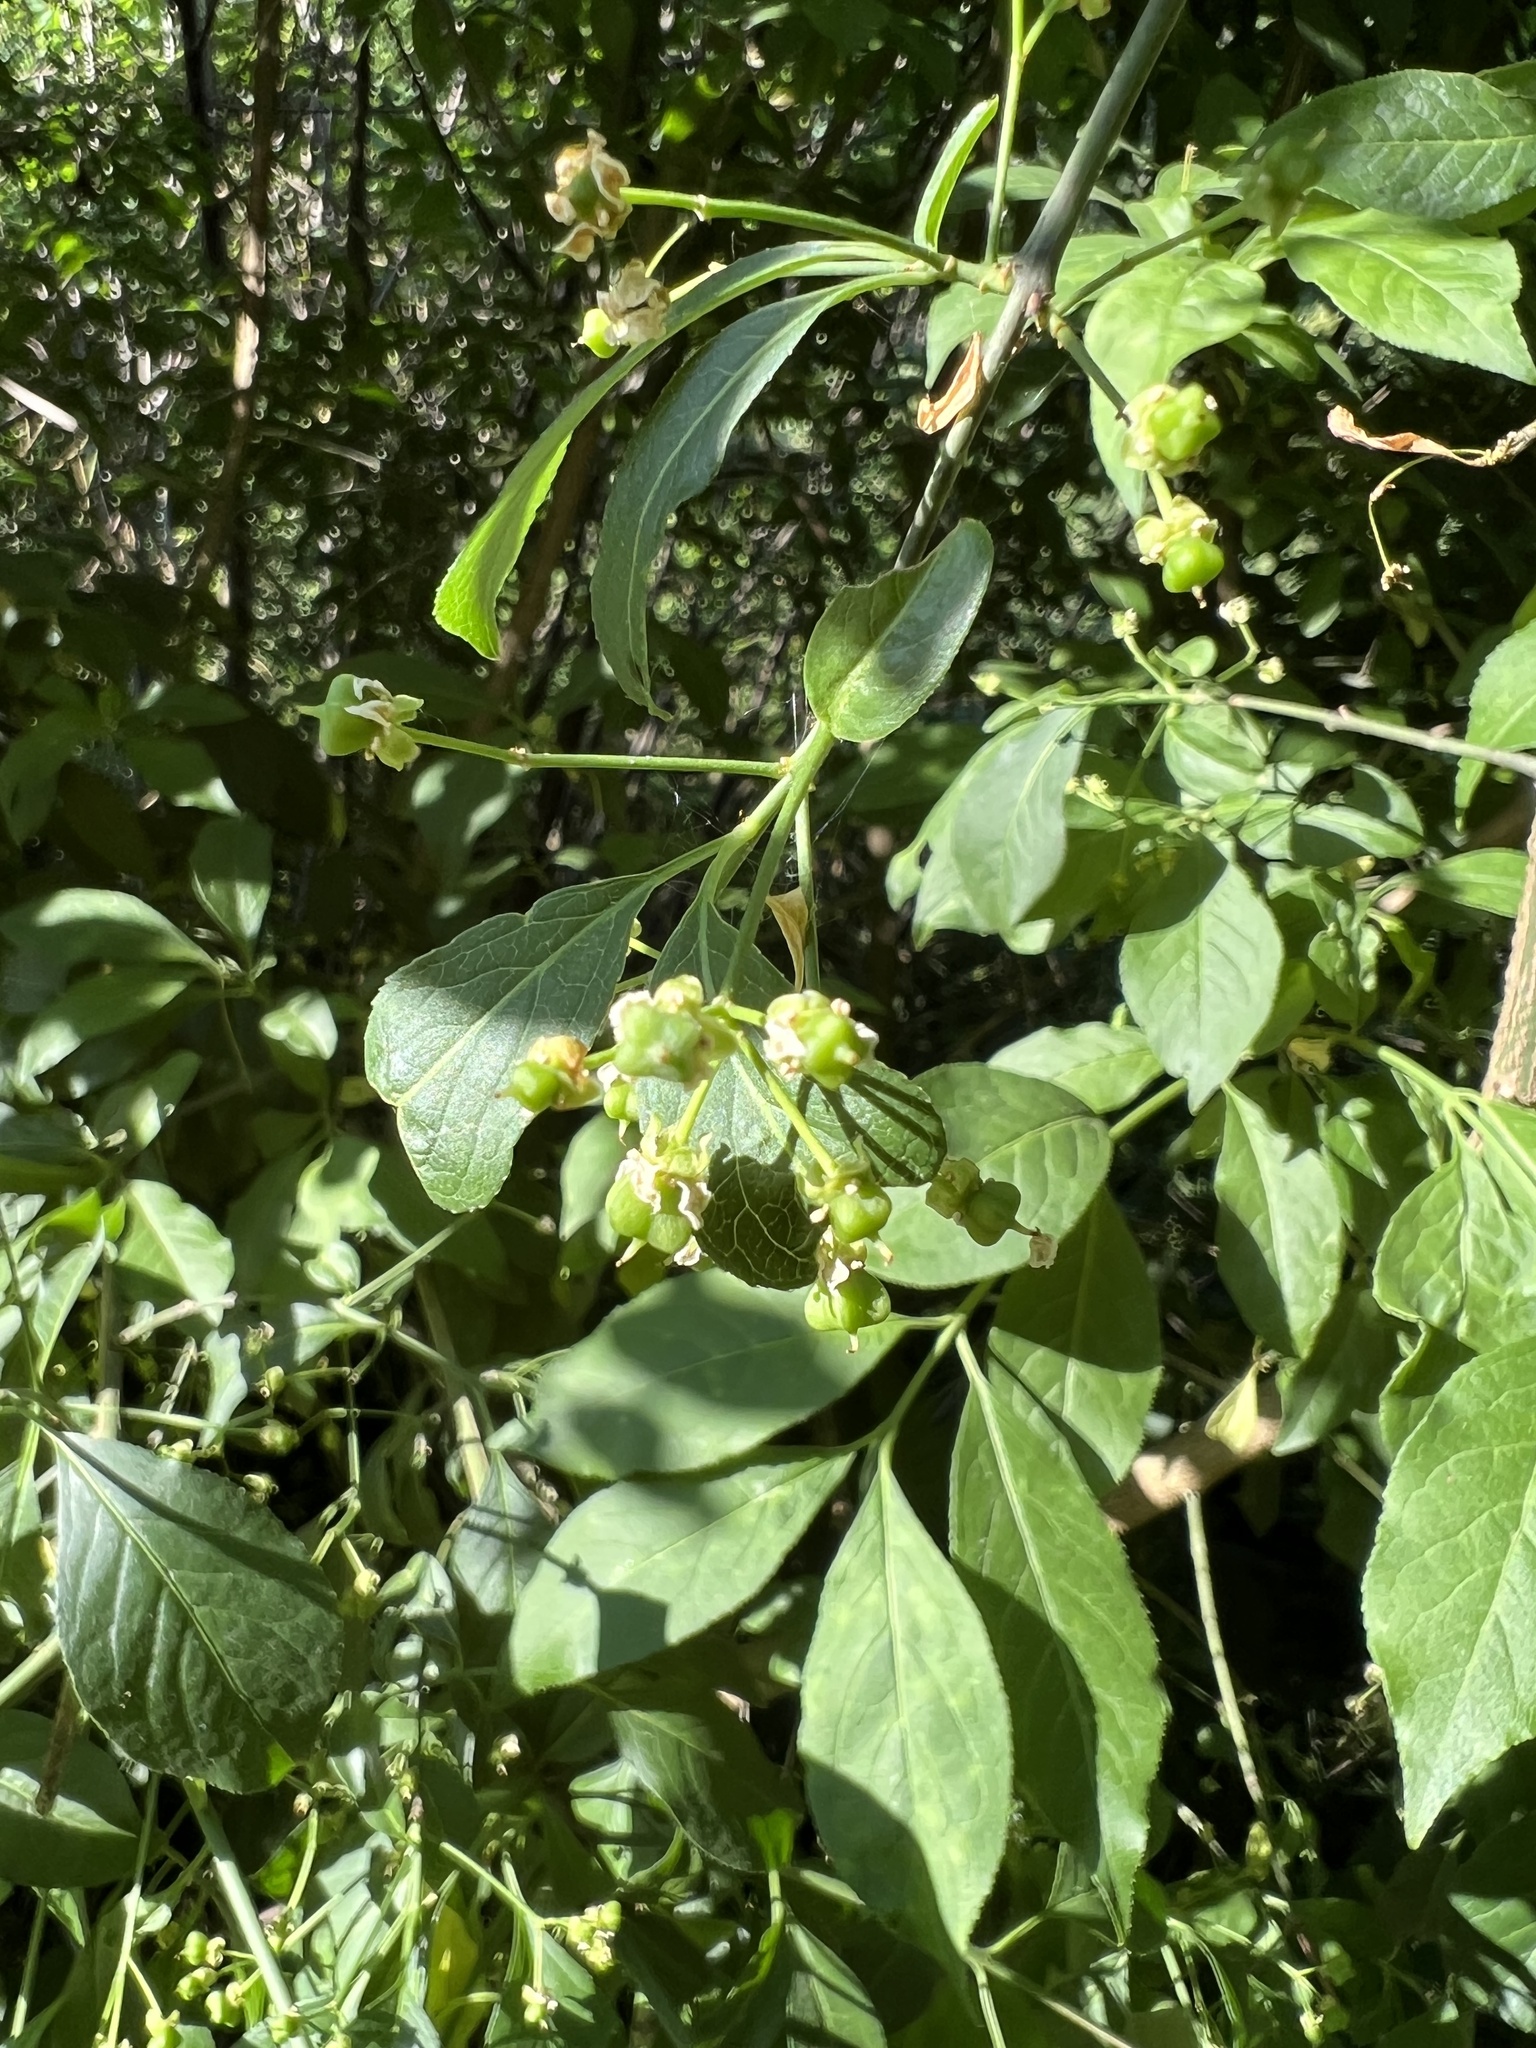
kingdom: Plantae
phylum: Tracheophyta
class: Magnoliopsida
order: Celastrales
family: Celastraceae
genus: Euonymus
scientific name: Euonymus europaeus
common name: Spindle
